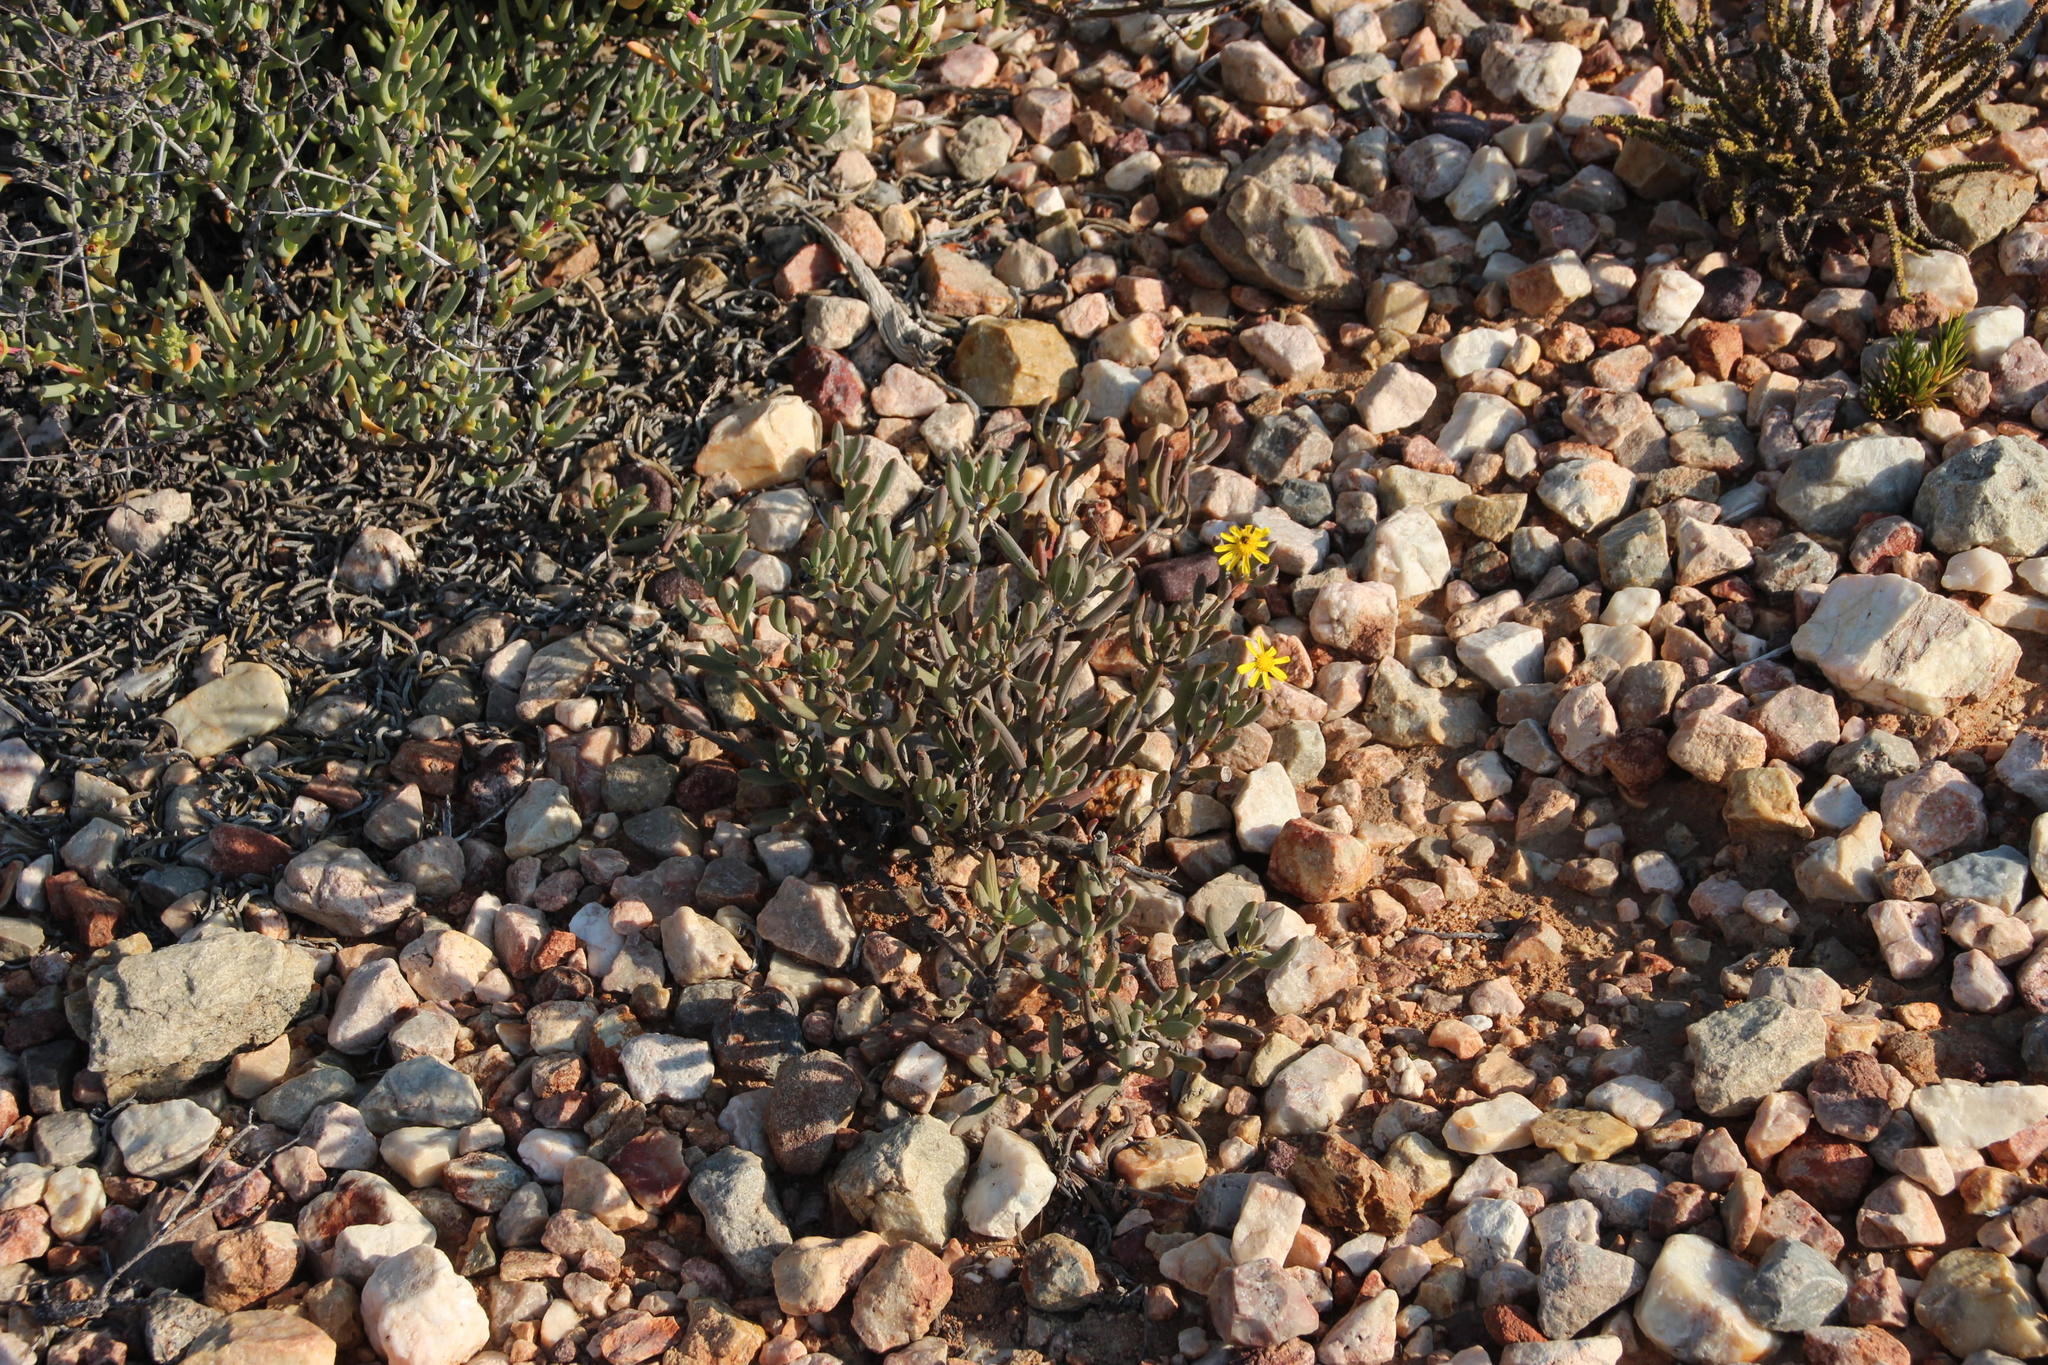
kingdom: Plantae
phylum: Tracheophyta
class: Magnoliopsida
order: Asterales
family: Asteraceae
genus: Crassothonna
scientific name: Crassothonna cacalioides
